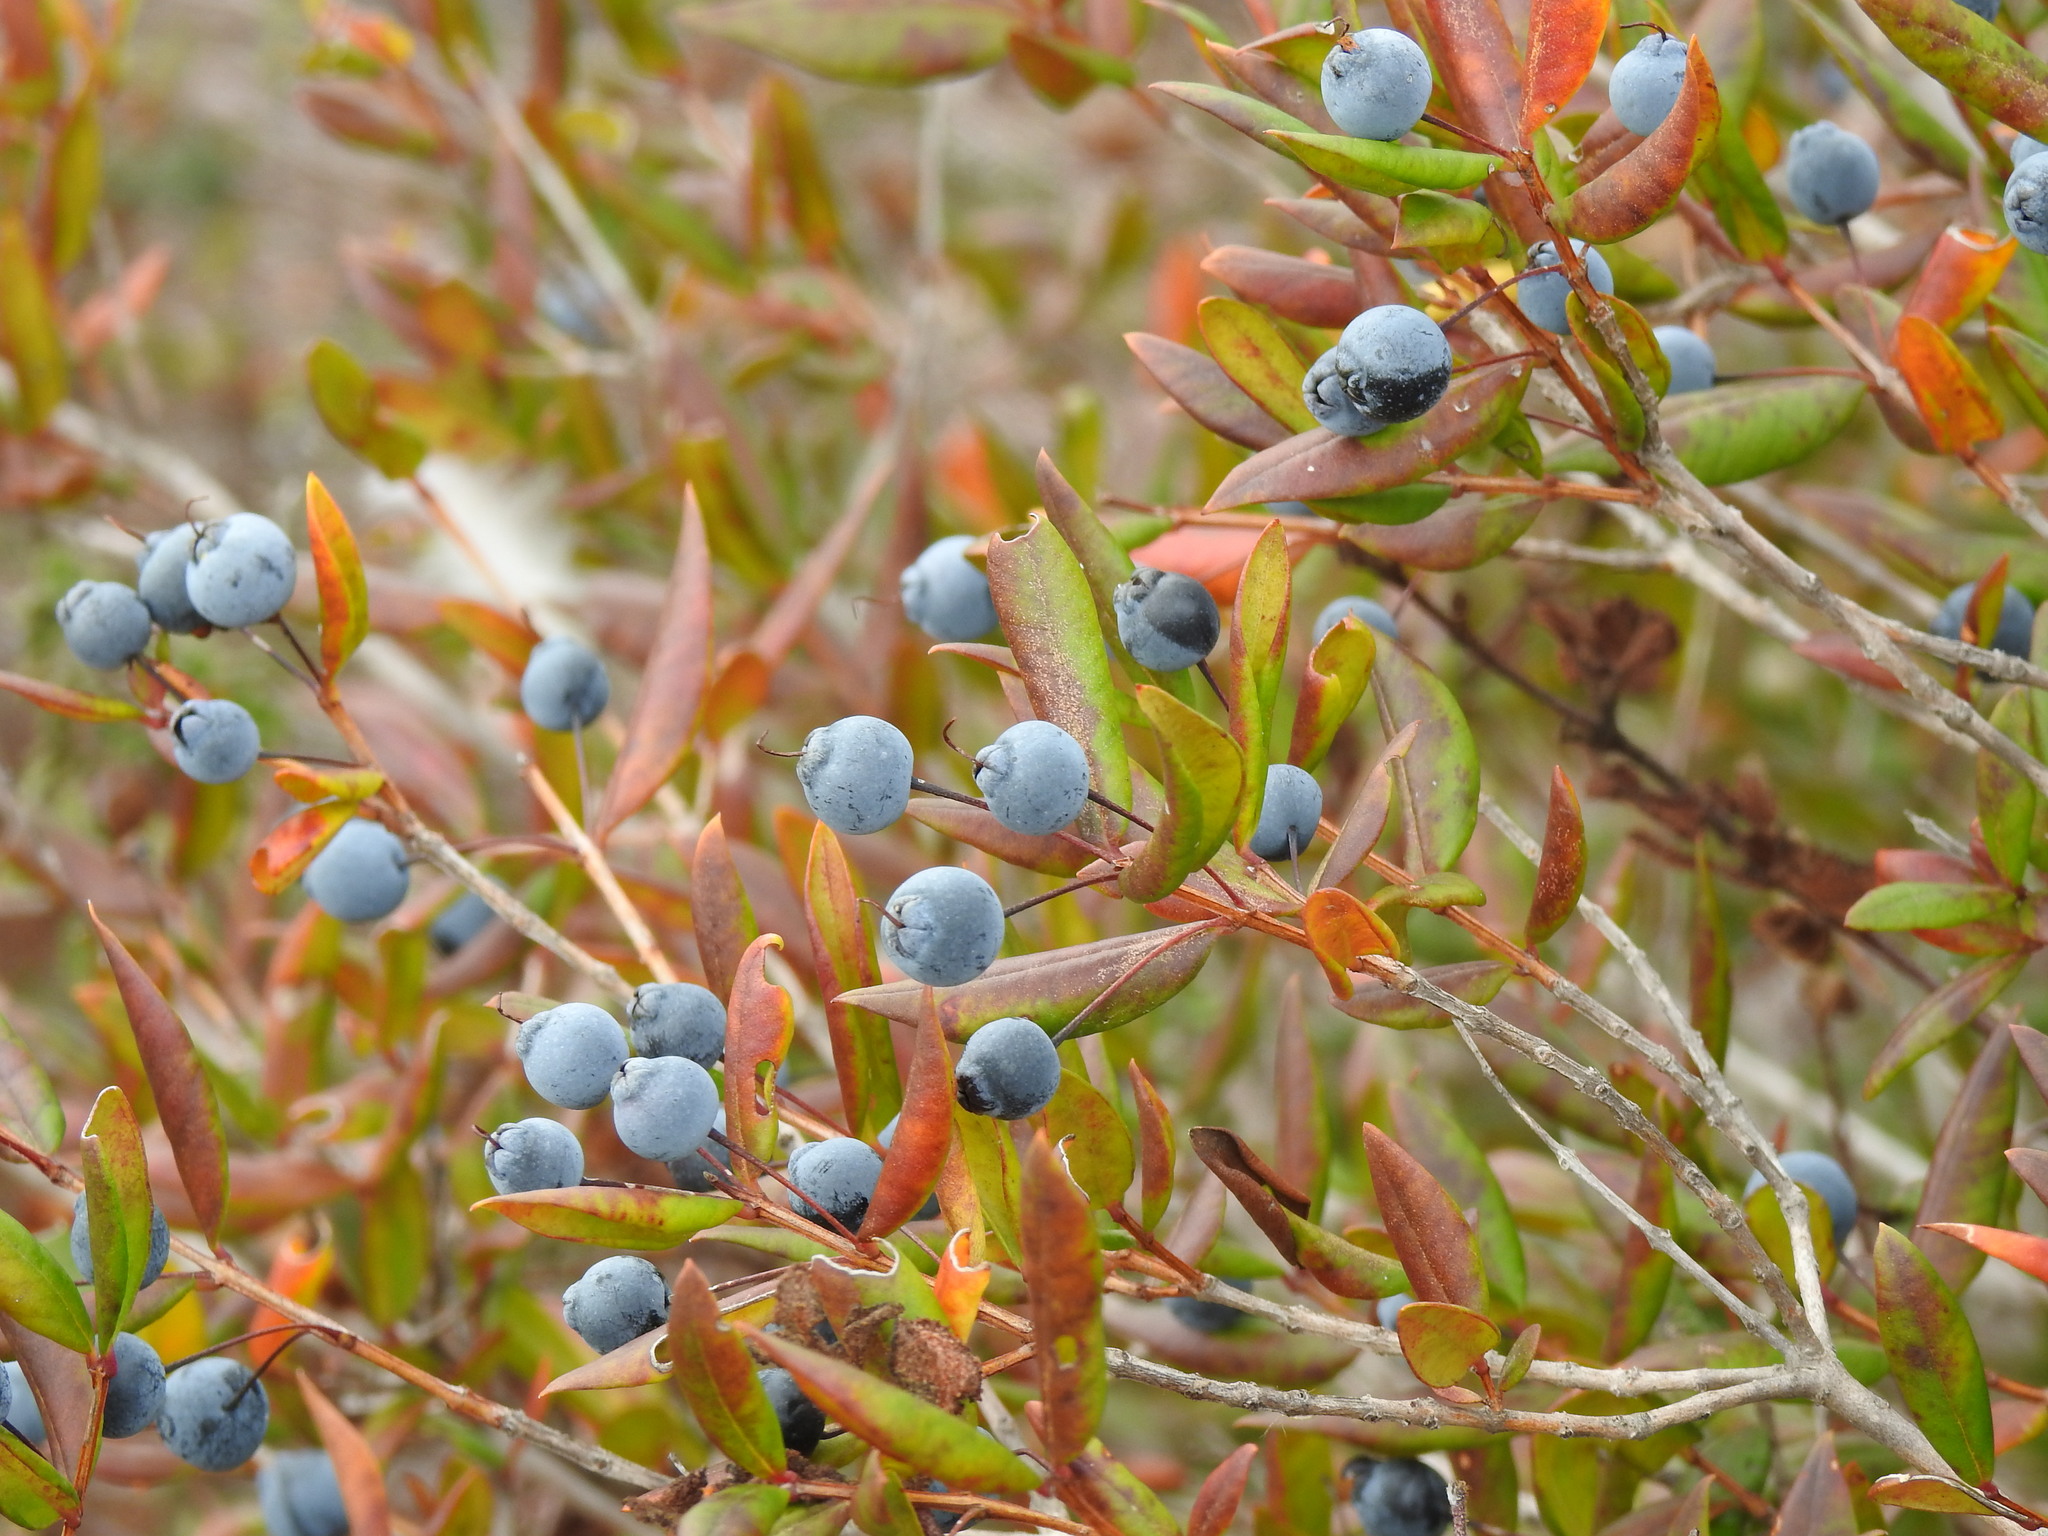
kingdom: Plantae
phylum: Tracheophyta
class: Magnoliopsida
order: Myrtales
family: Myrtaceae
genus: Myrtus
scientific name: Myrtus communis
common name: Myrtle
